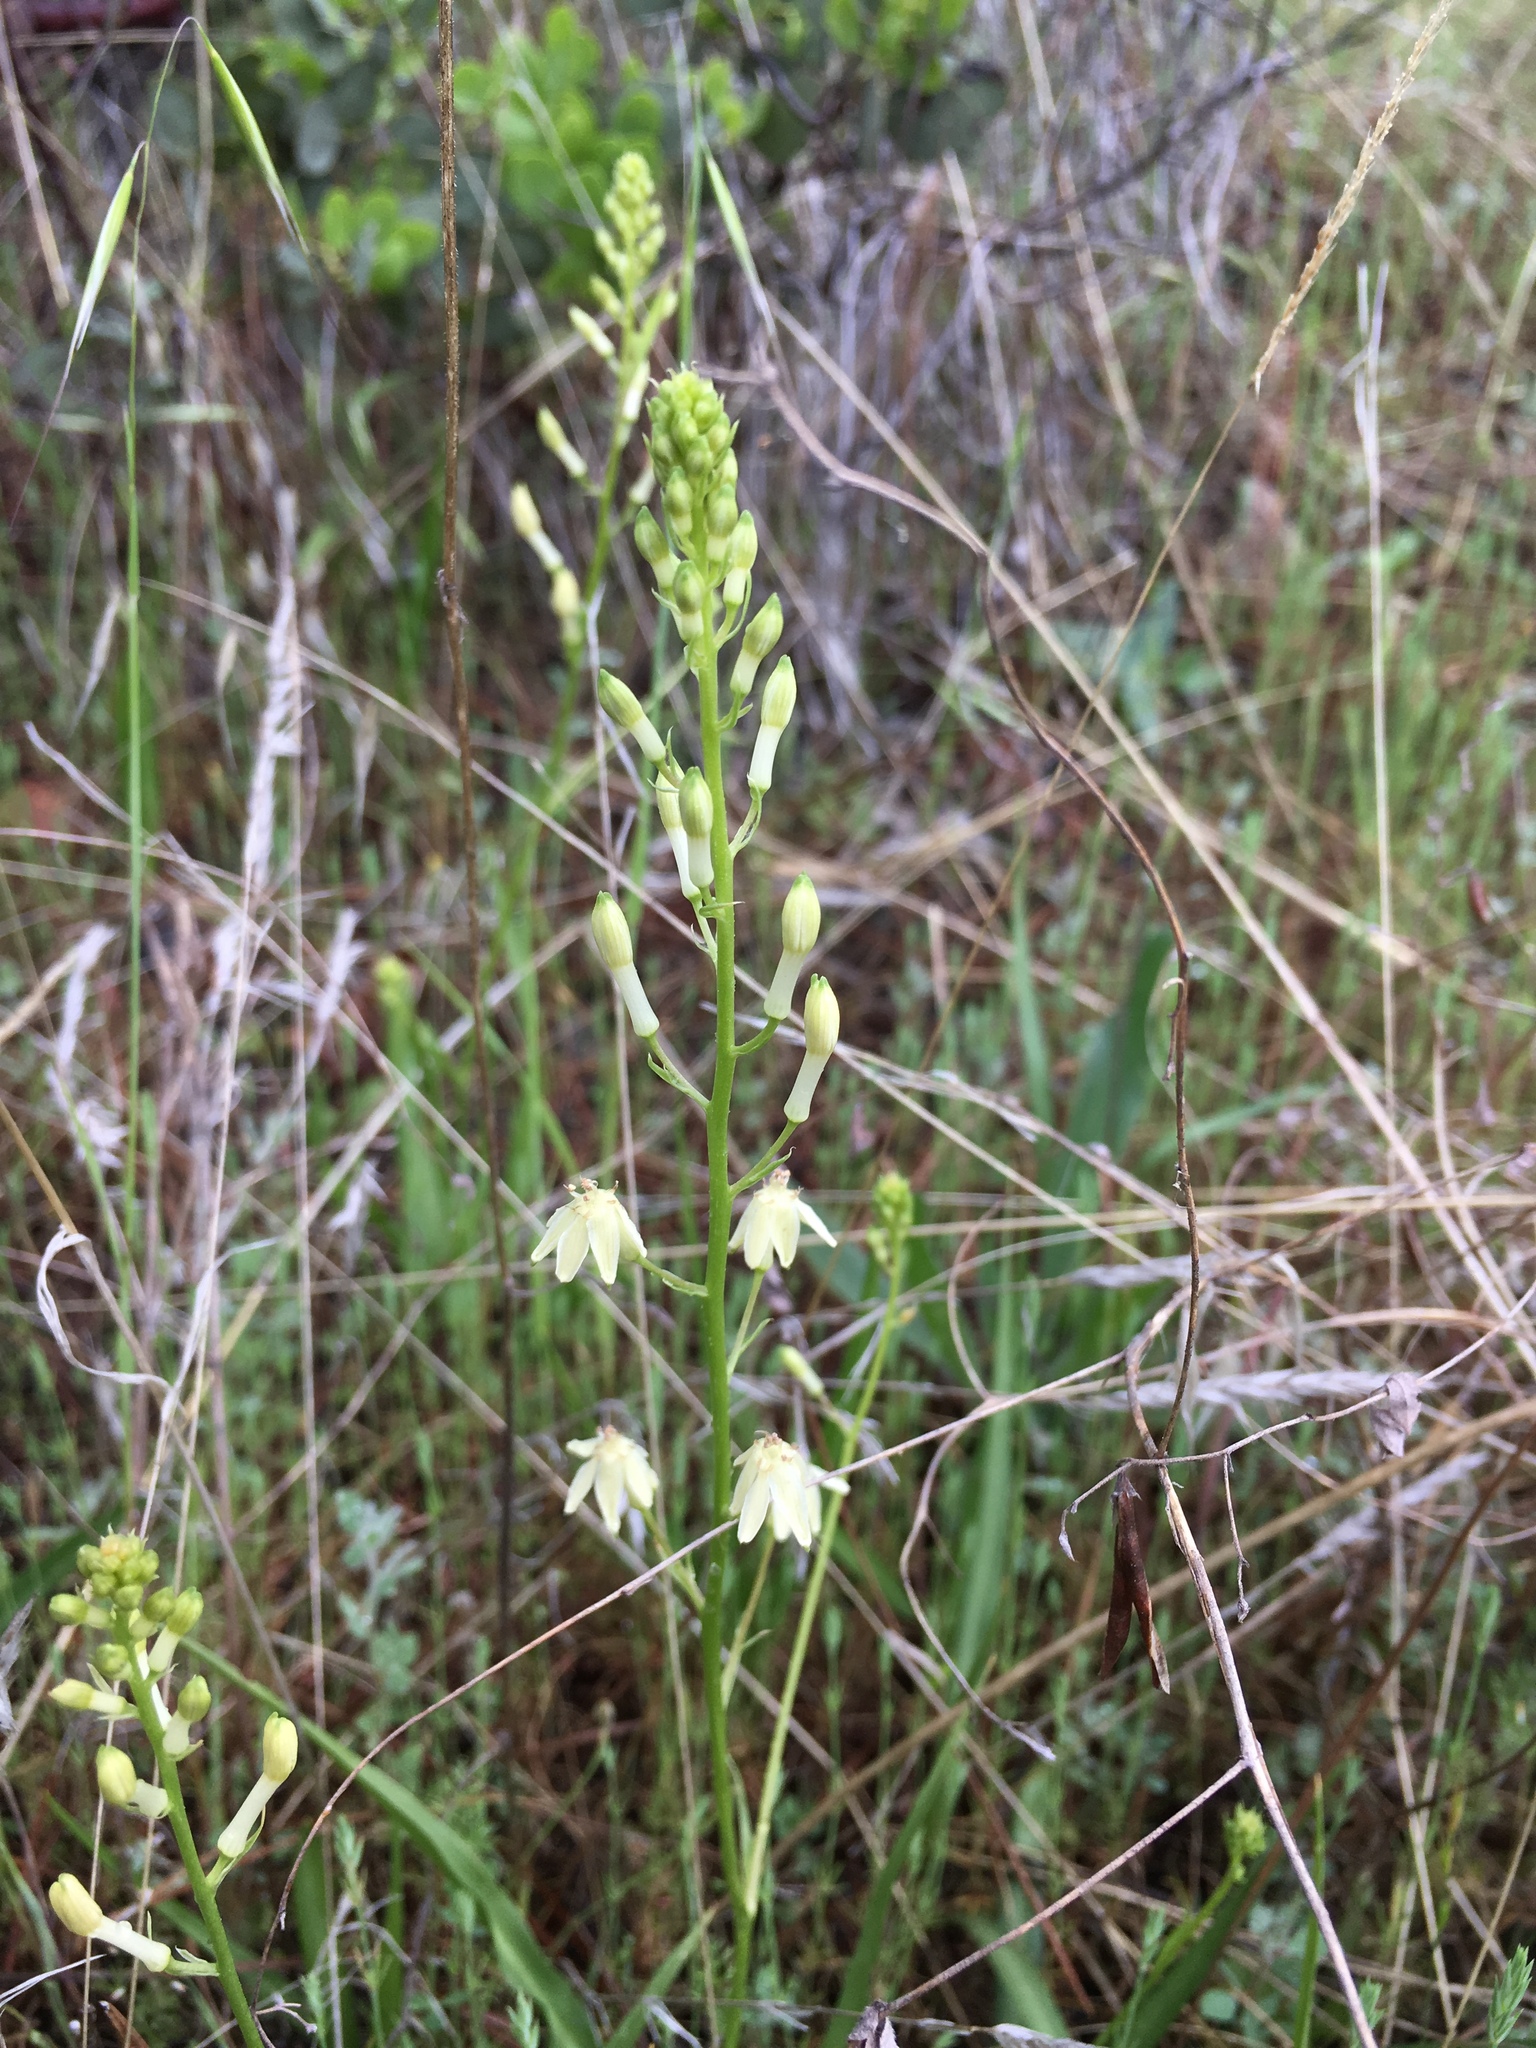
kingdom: Plantae
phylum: Tracheophyta
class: Liliopsida
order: Asparagales
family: Tecophilaeaceae
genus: Odontostomum
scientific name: Odontostomum hartwegii
